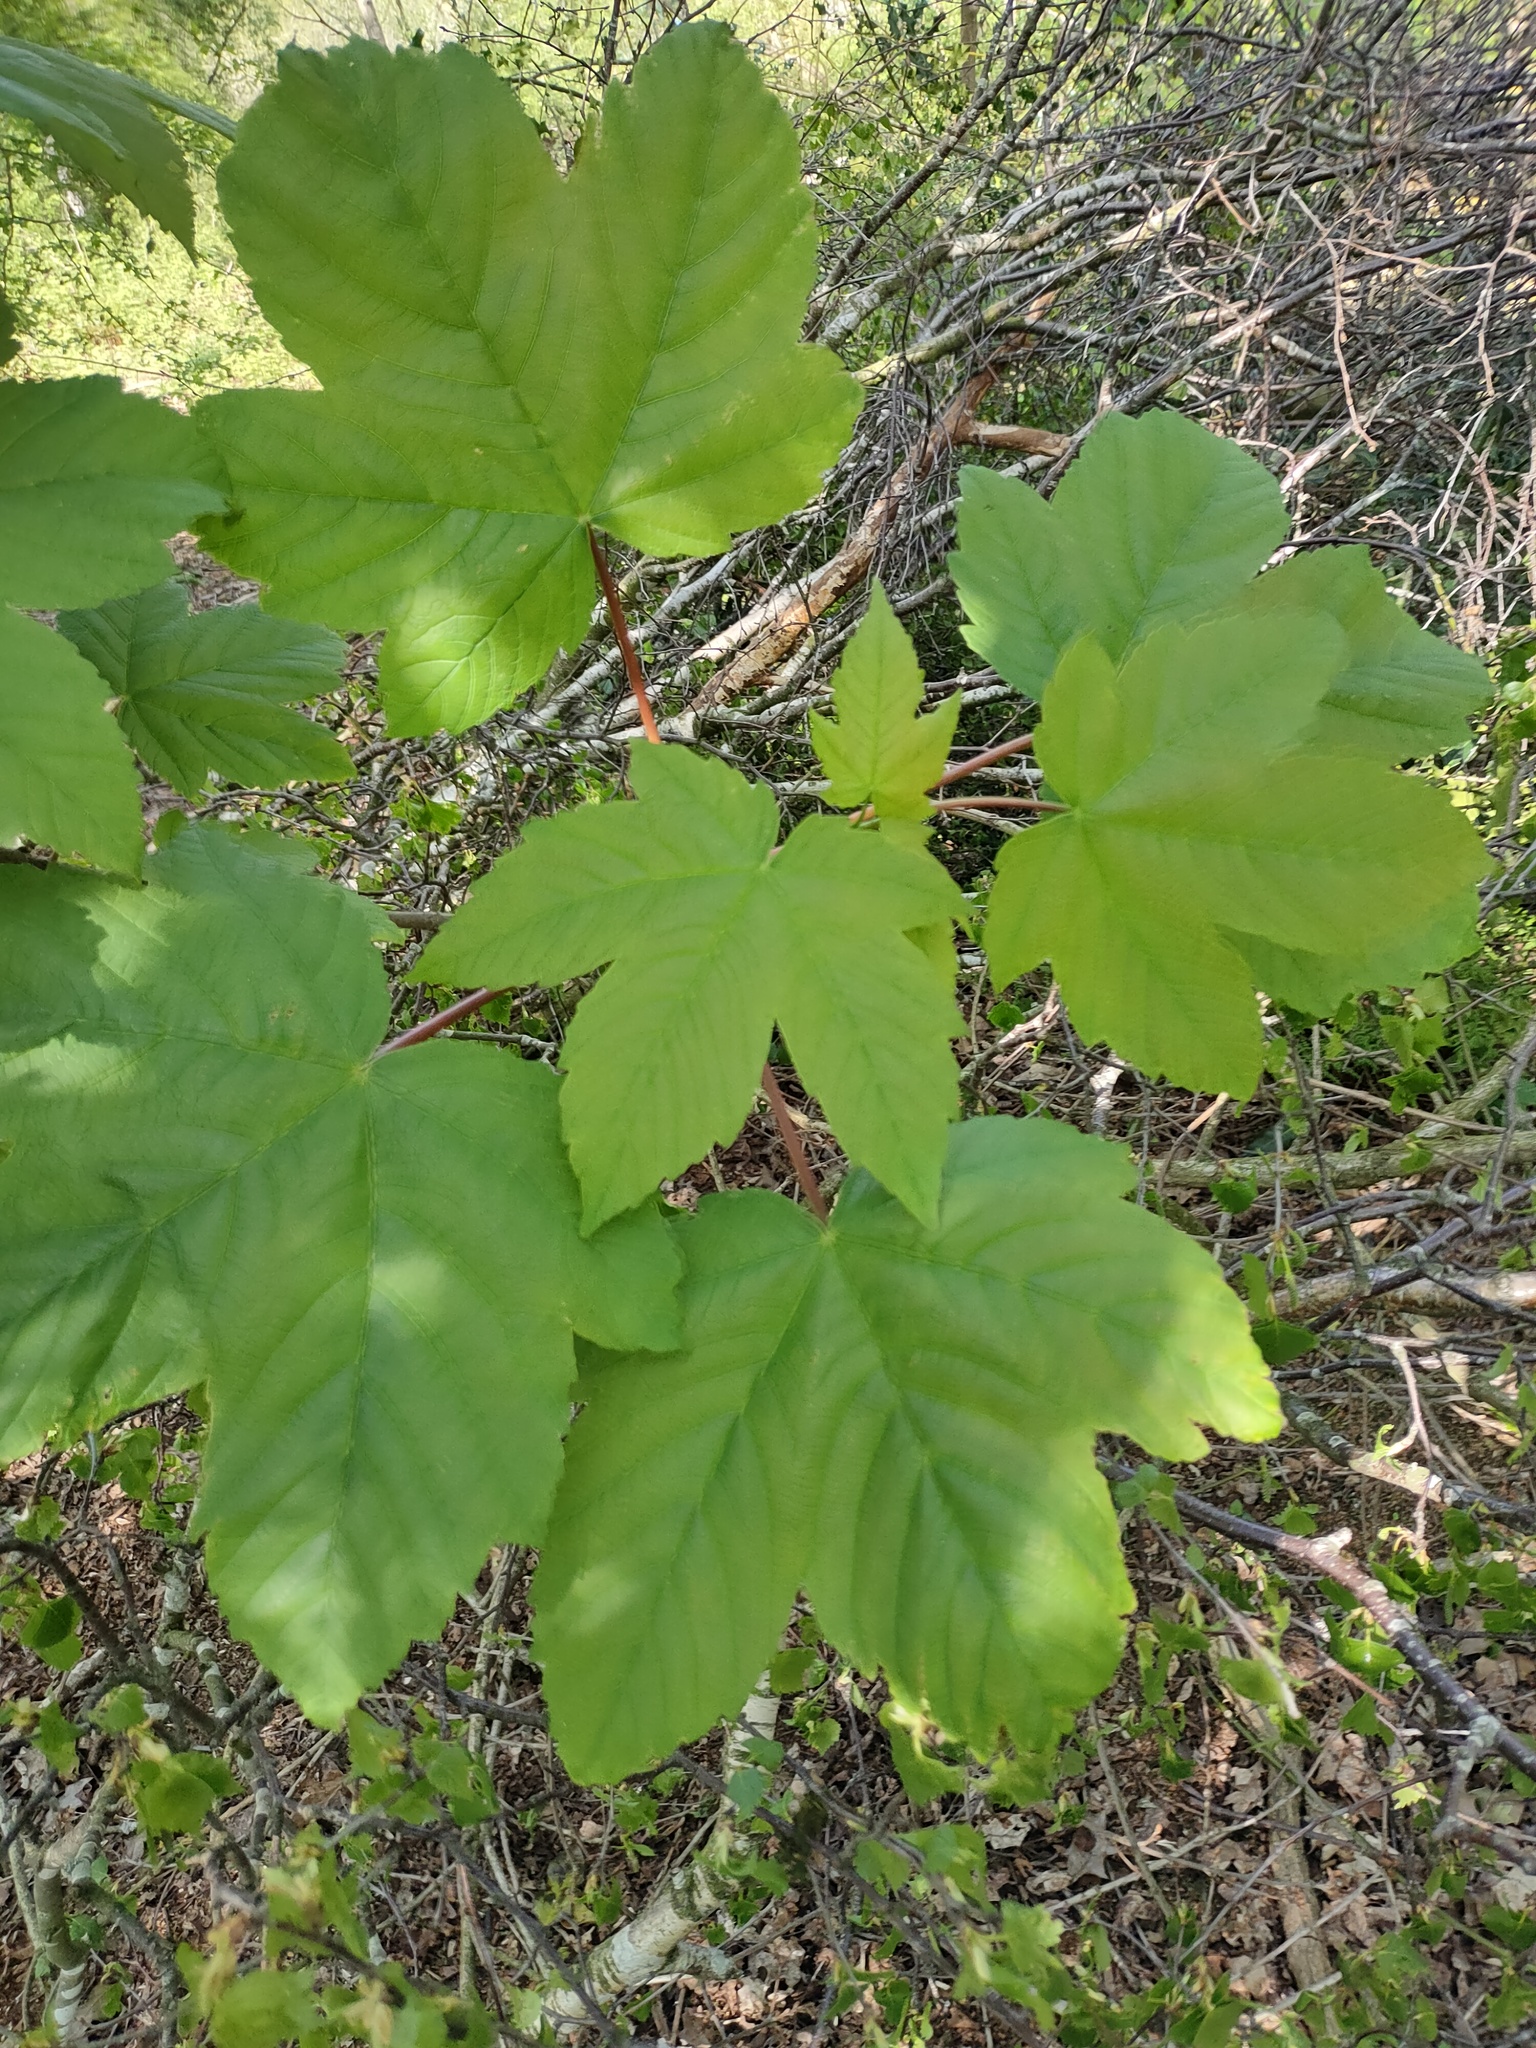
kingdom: Plantae
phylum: Tracheophyta
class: Magnoliopsida
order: Sapindales
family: Sapindaceae
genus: Acer
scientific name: Acer pseudoplatanus
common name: Sycamore
